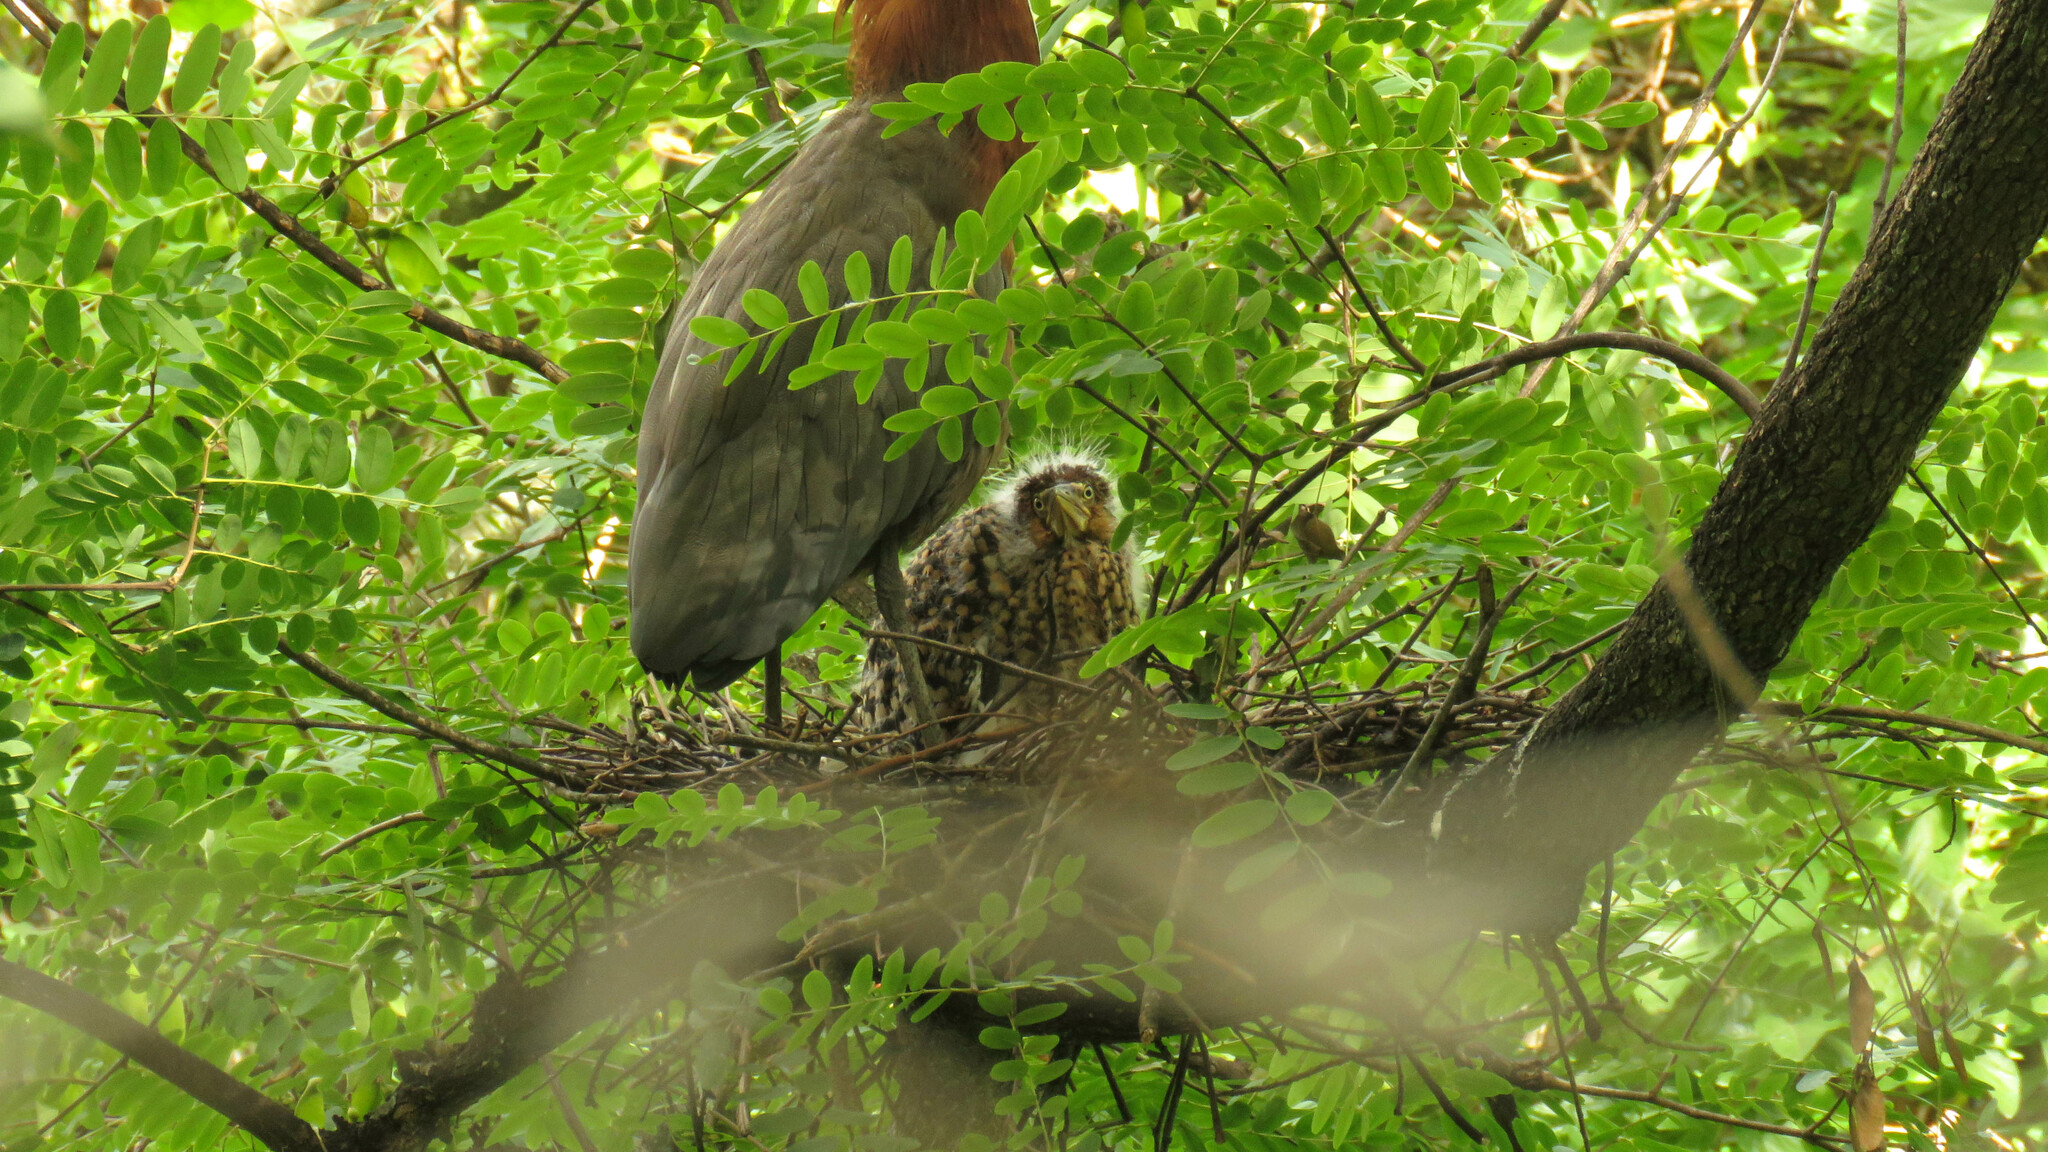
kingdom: Animalia
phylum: Chordata
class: Aves
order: Pelecaniformes
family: Ardeidae
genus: Tigrisoma
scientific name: Tigrisoma lineatum
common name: Rufescent tiger-heron
